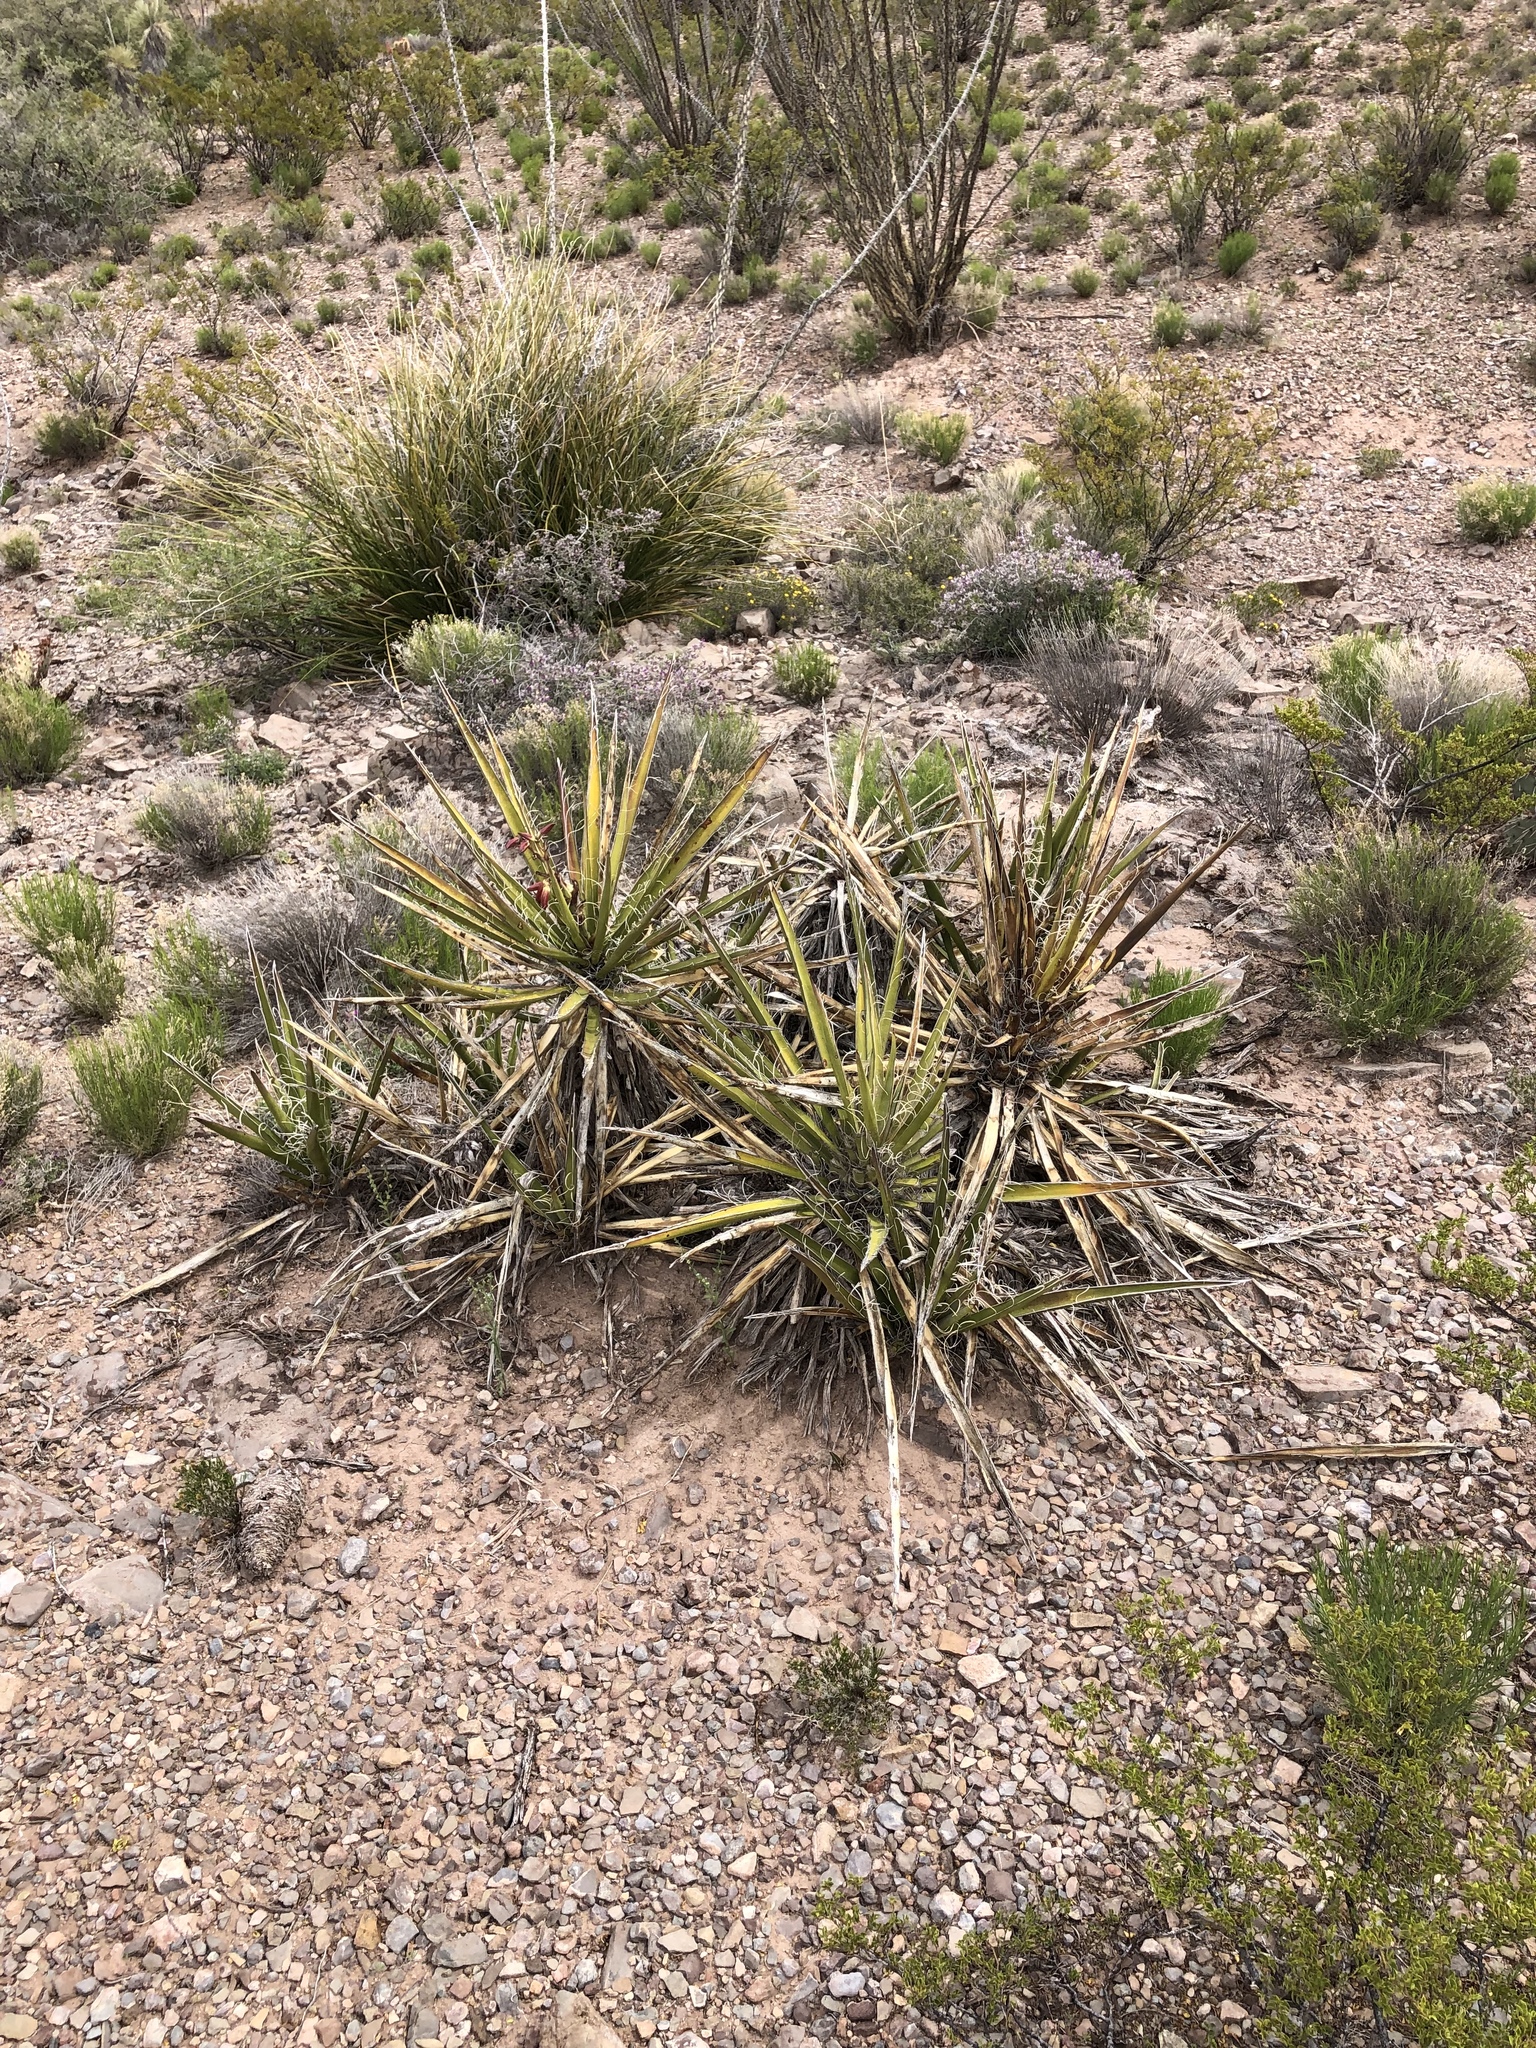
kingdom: Plantae
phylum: Tracheophyta
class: Liliopsida
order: Asparagales
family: Asparagaceae
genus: Yucca
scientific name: Yucca baccata
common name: Banana yucca
